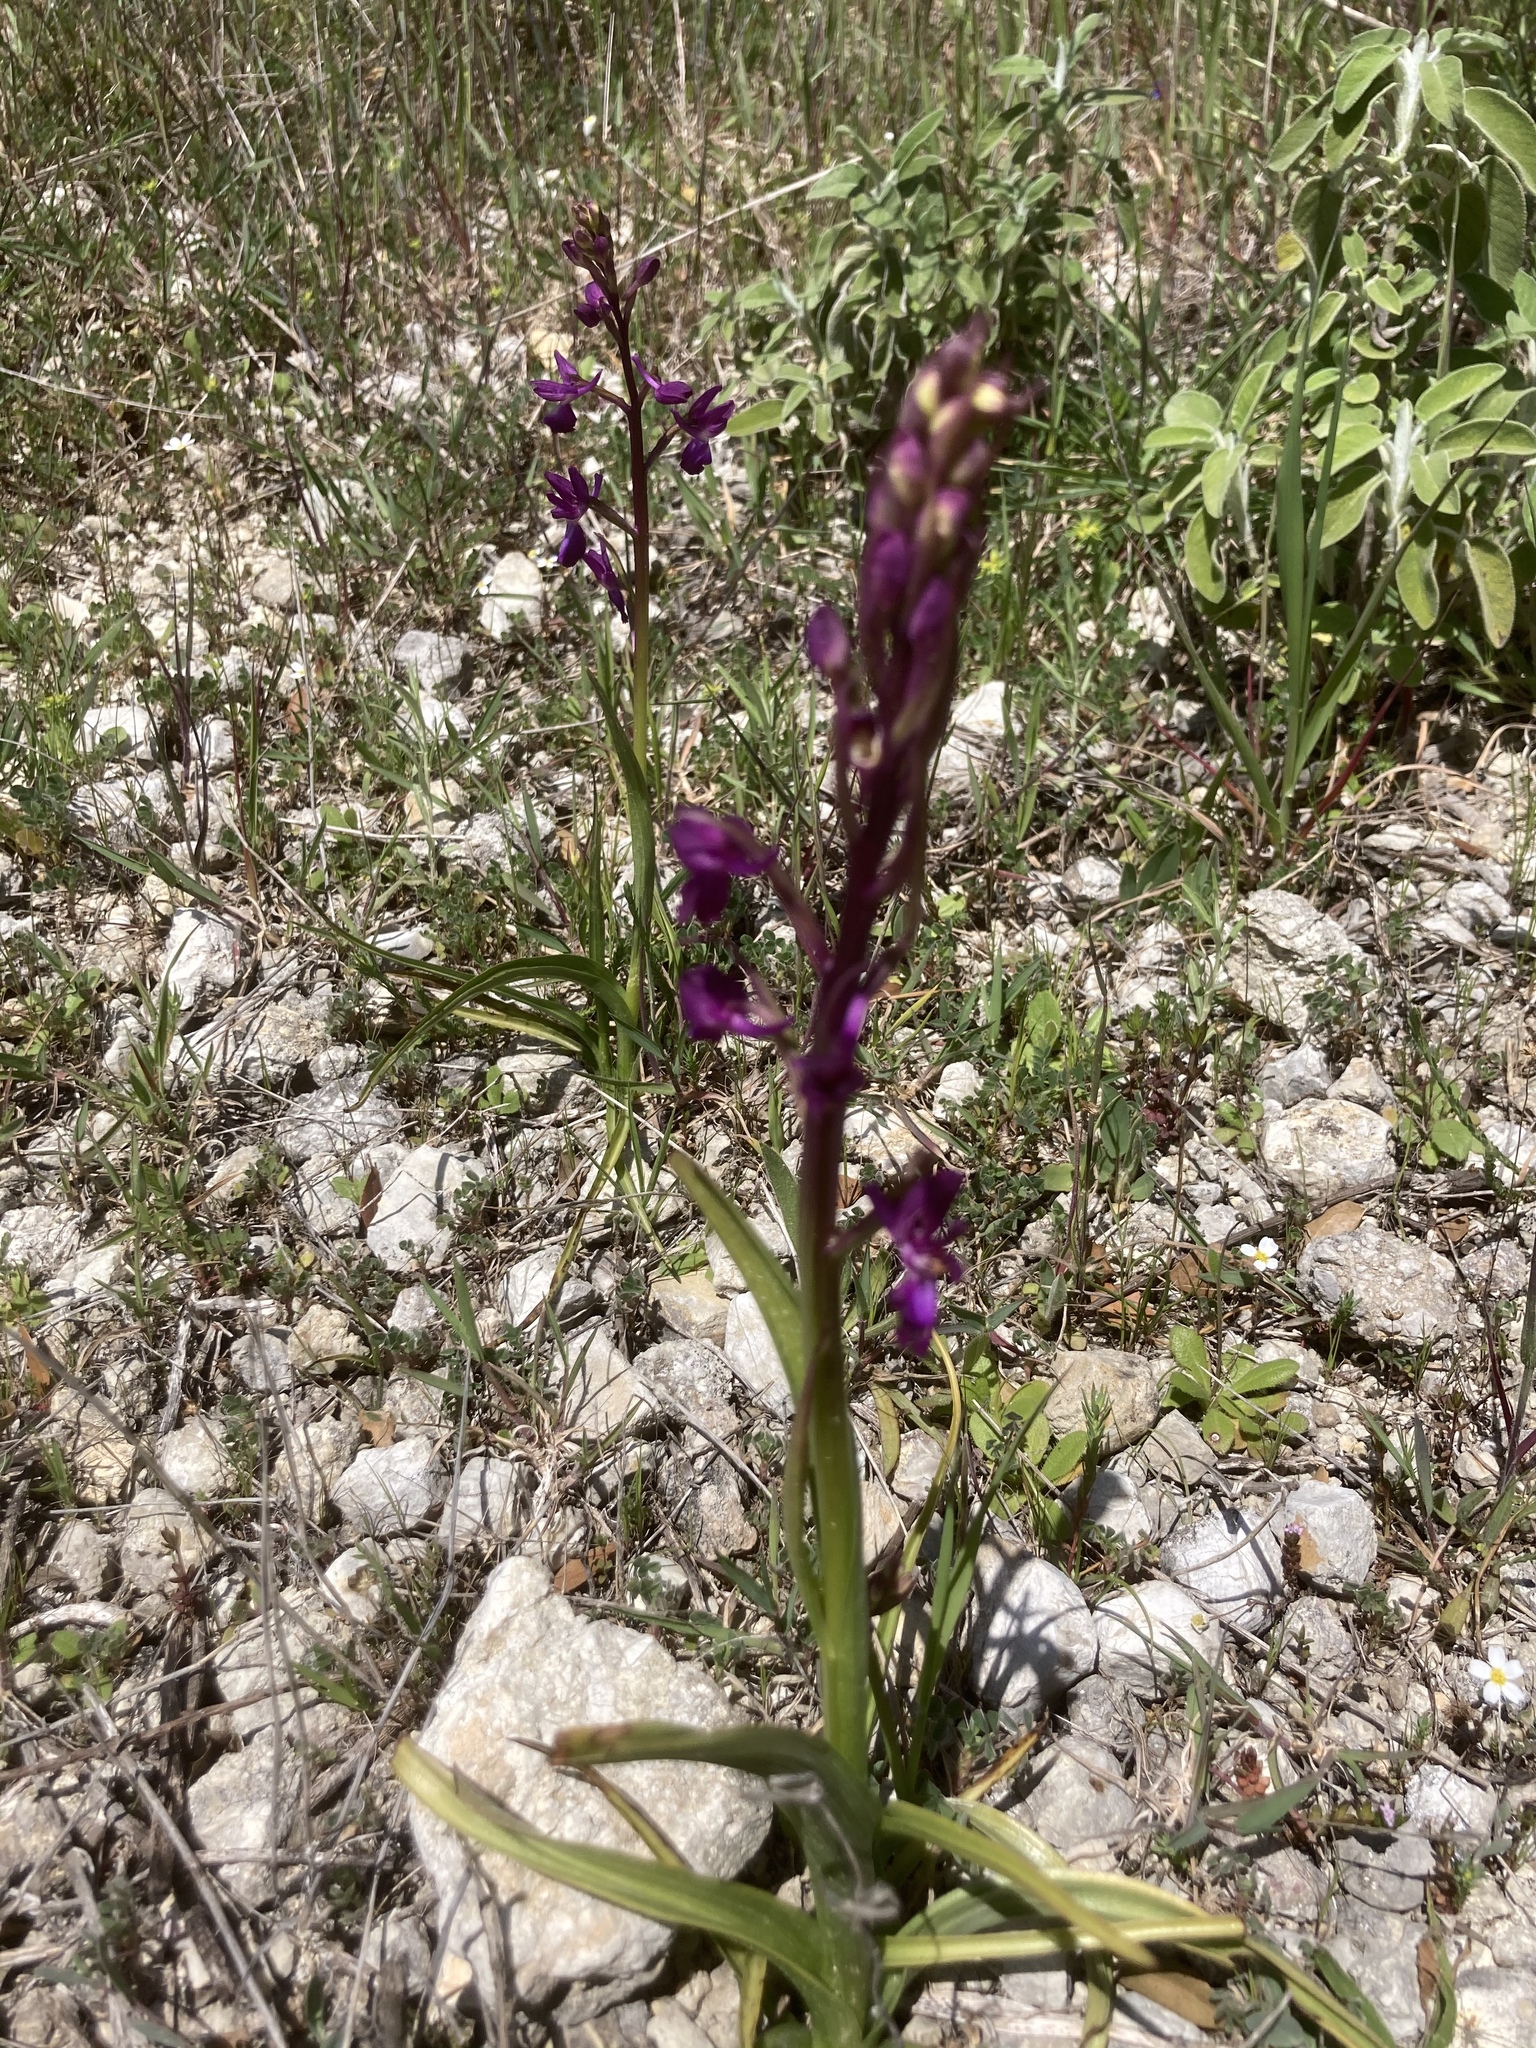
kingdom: Plantae
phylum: Tracheophyta
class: Liliopsida
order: Asparagales
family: Orchidaceae
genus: Anacamptis
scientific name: Anacamptis laxiflora
